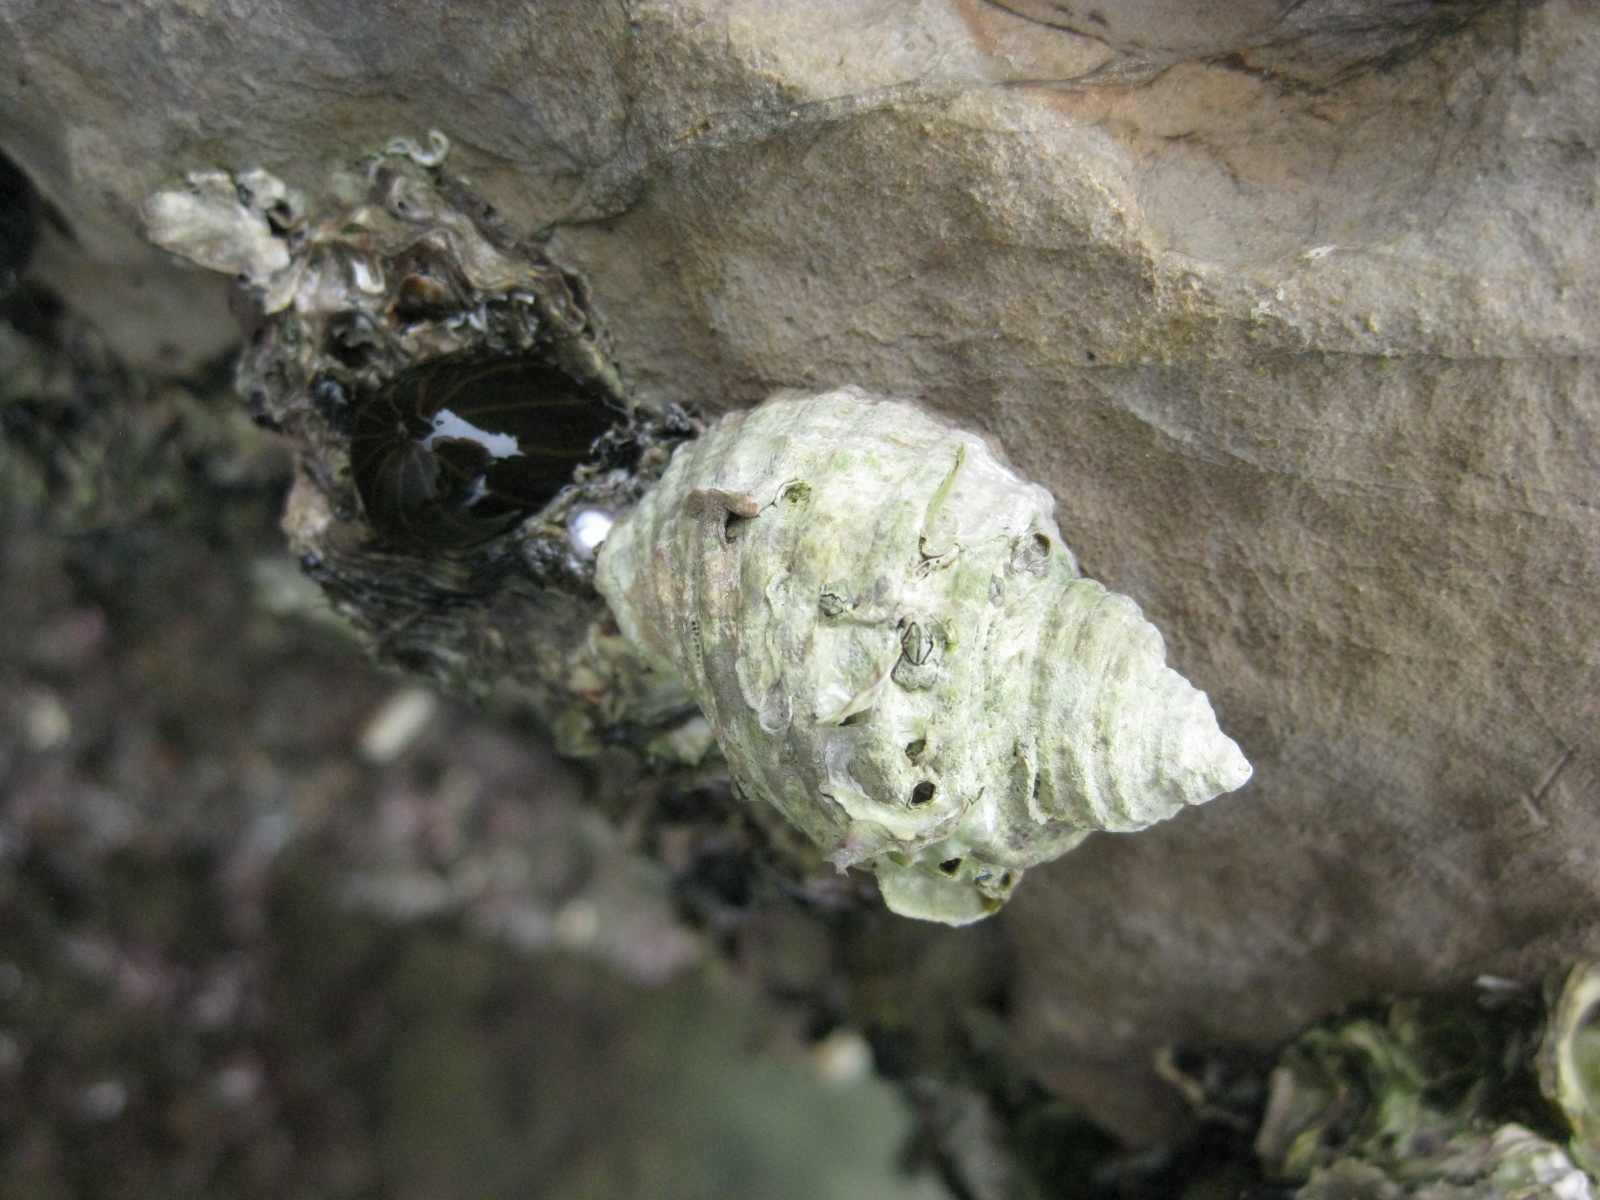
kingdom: Animalia
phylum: Cnidaria
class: Anthozoa
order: Actiniaria
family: Diadumenidae
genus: Diadumene
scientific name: Diadumene lineata
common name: Orange-striped anemone
